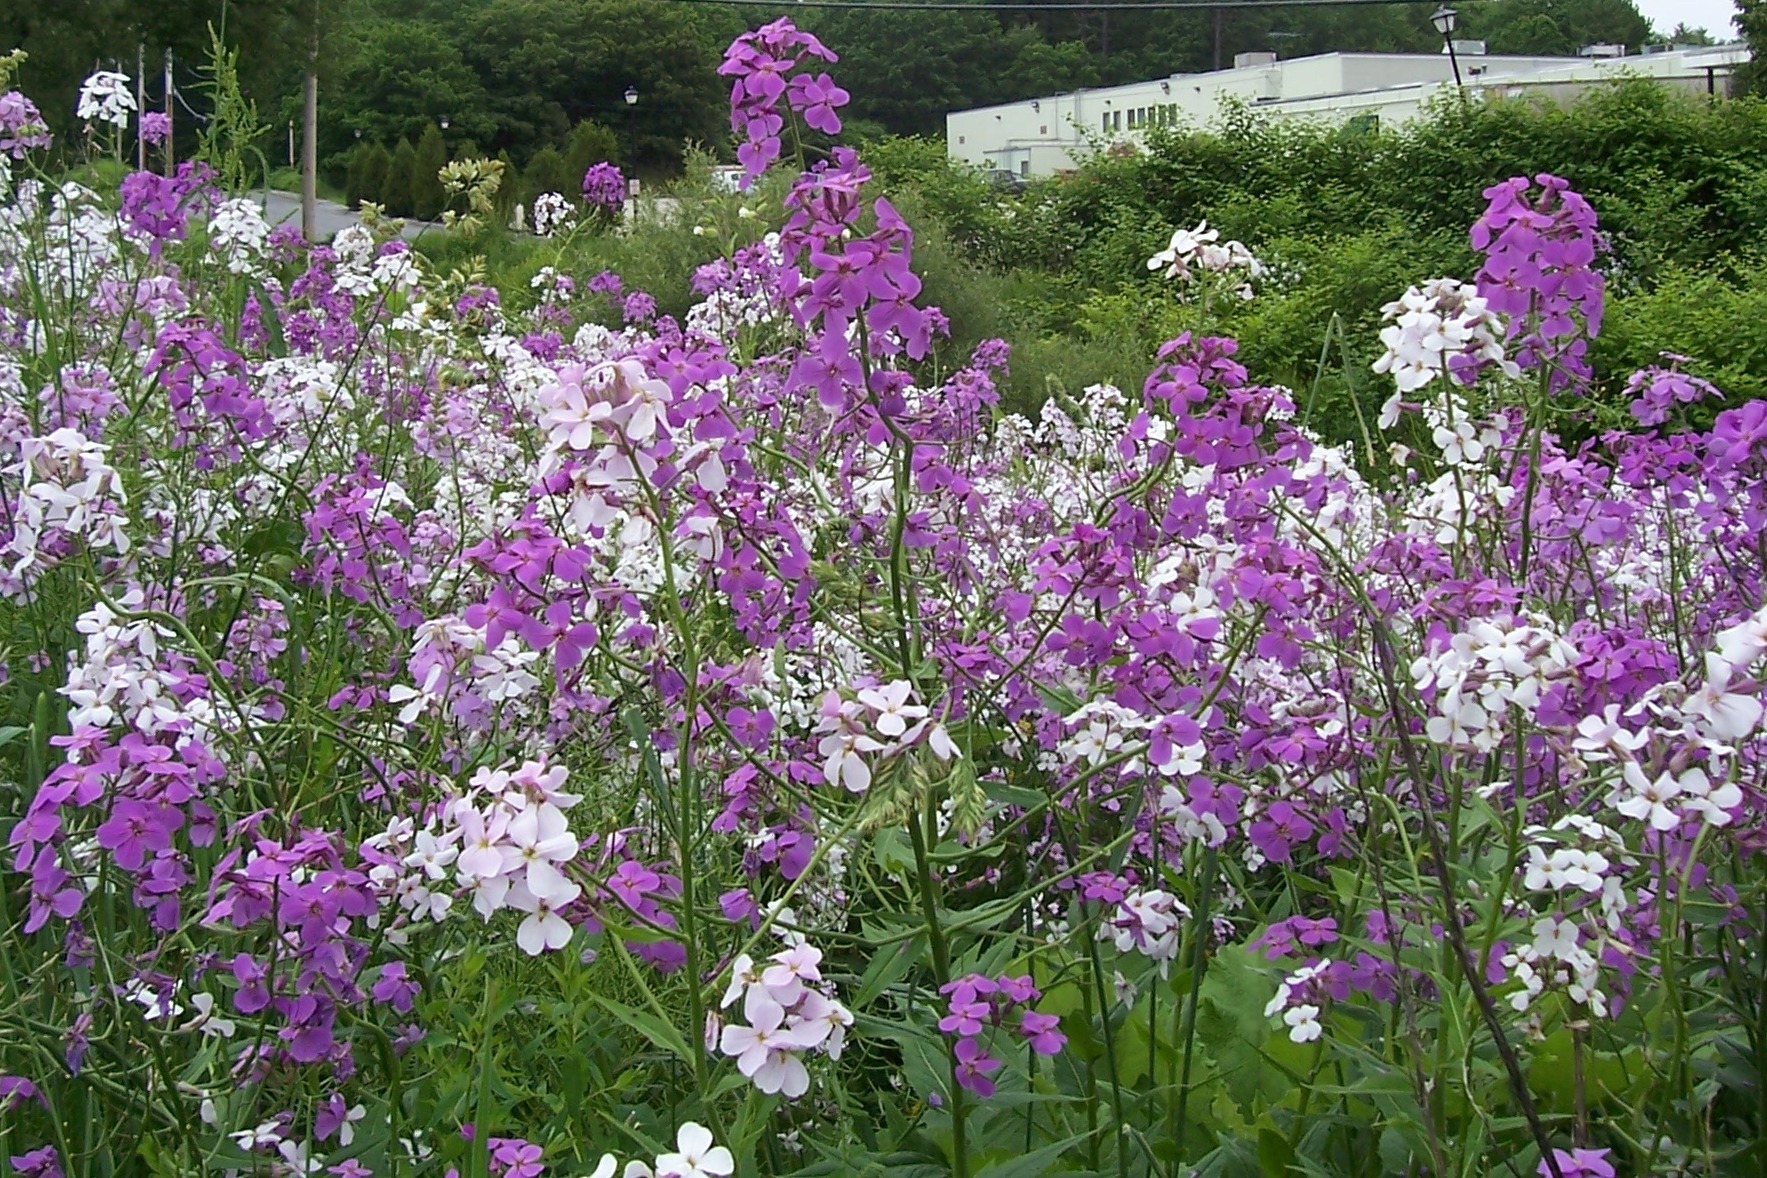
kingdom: Plantae
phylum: Tracheophyta
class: Magnoliopsida
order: Brassicales
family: Brassicaceae
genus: Hesperis
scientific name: Hesperis matronalis
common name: Dame's-violet
